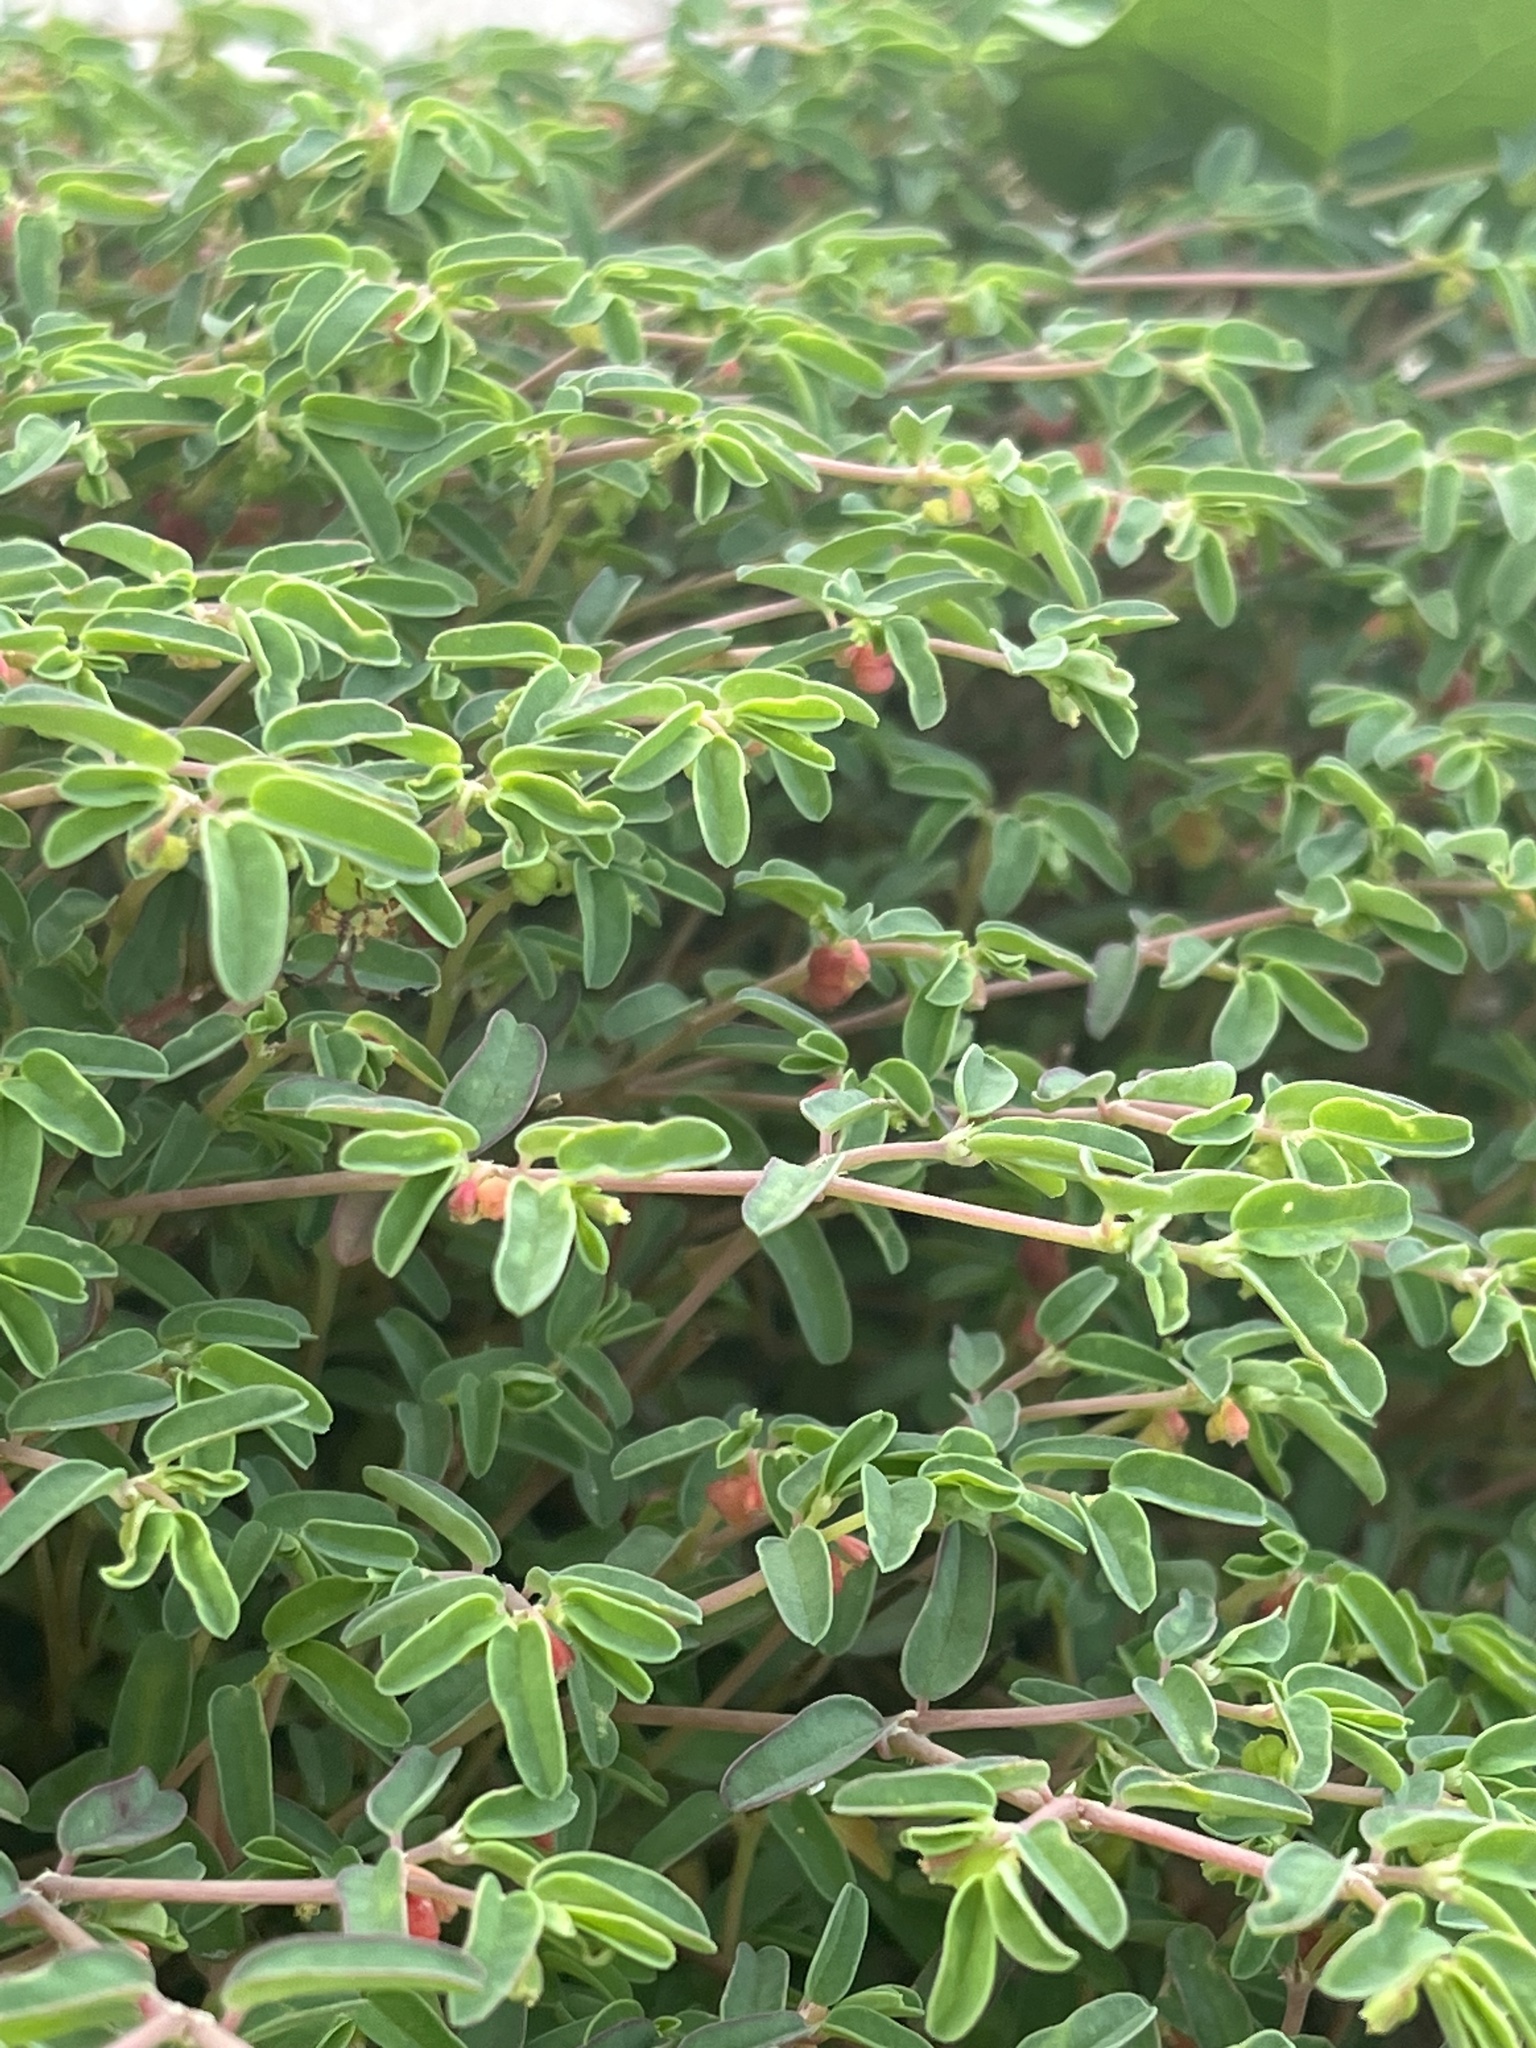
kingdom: Plantae
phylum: Tracheophyta
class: Magnoliopsida
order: Malpighiales
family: Euphorbiaceae
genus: Euphorbia
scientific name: Euphorbia bombensis
